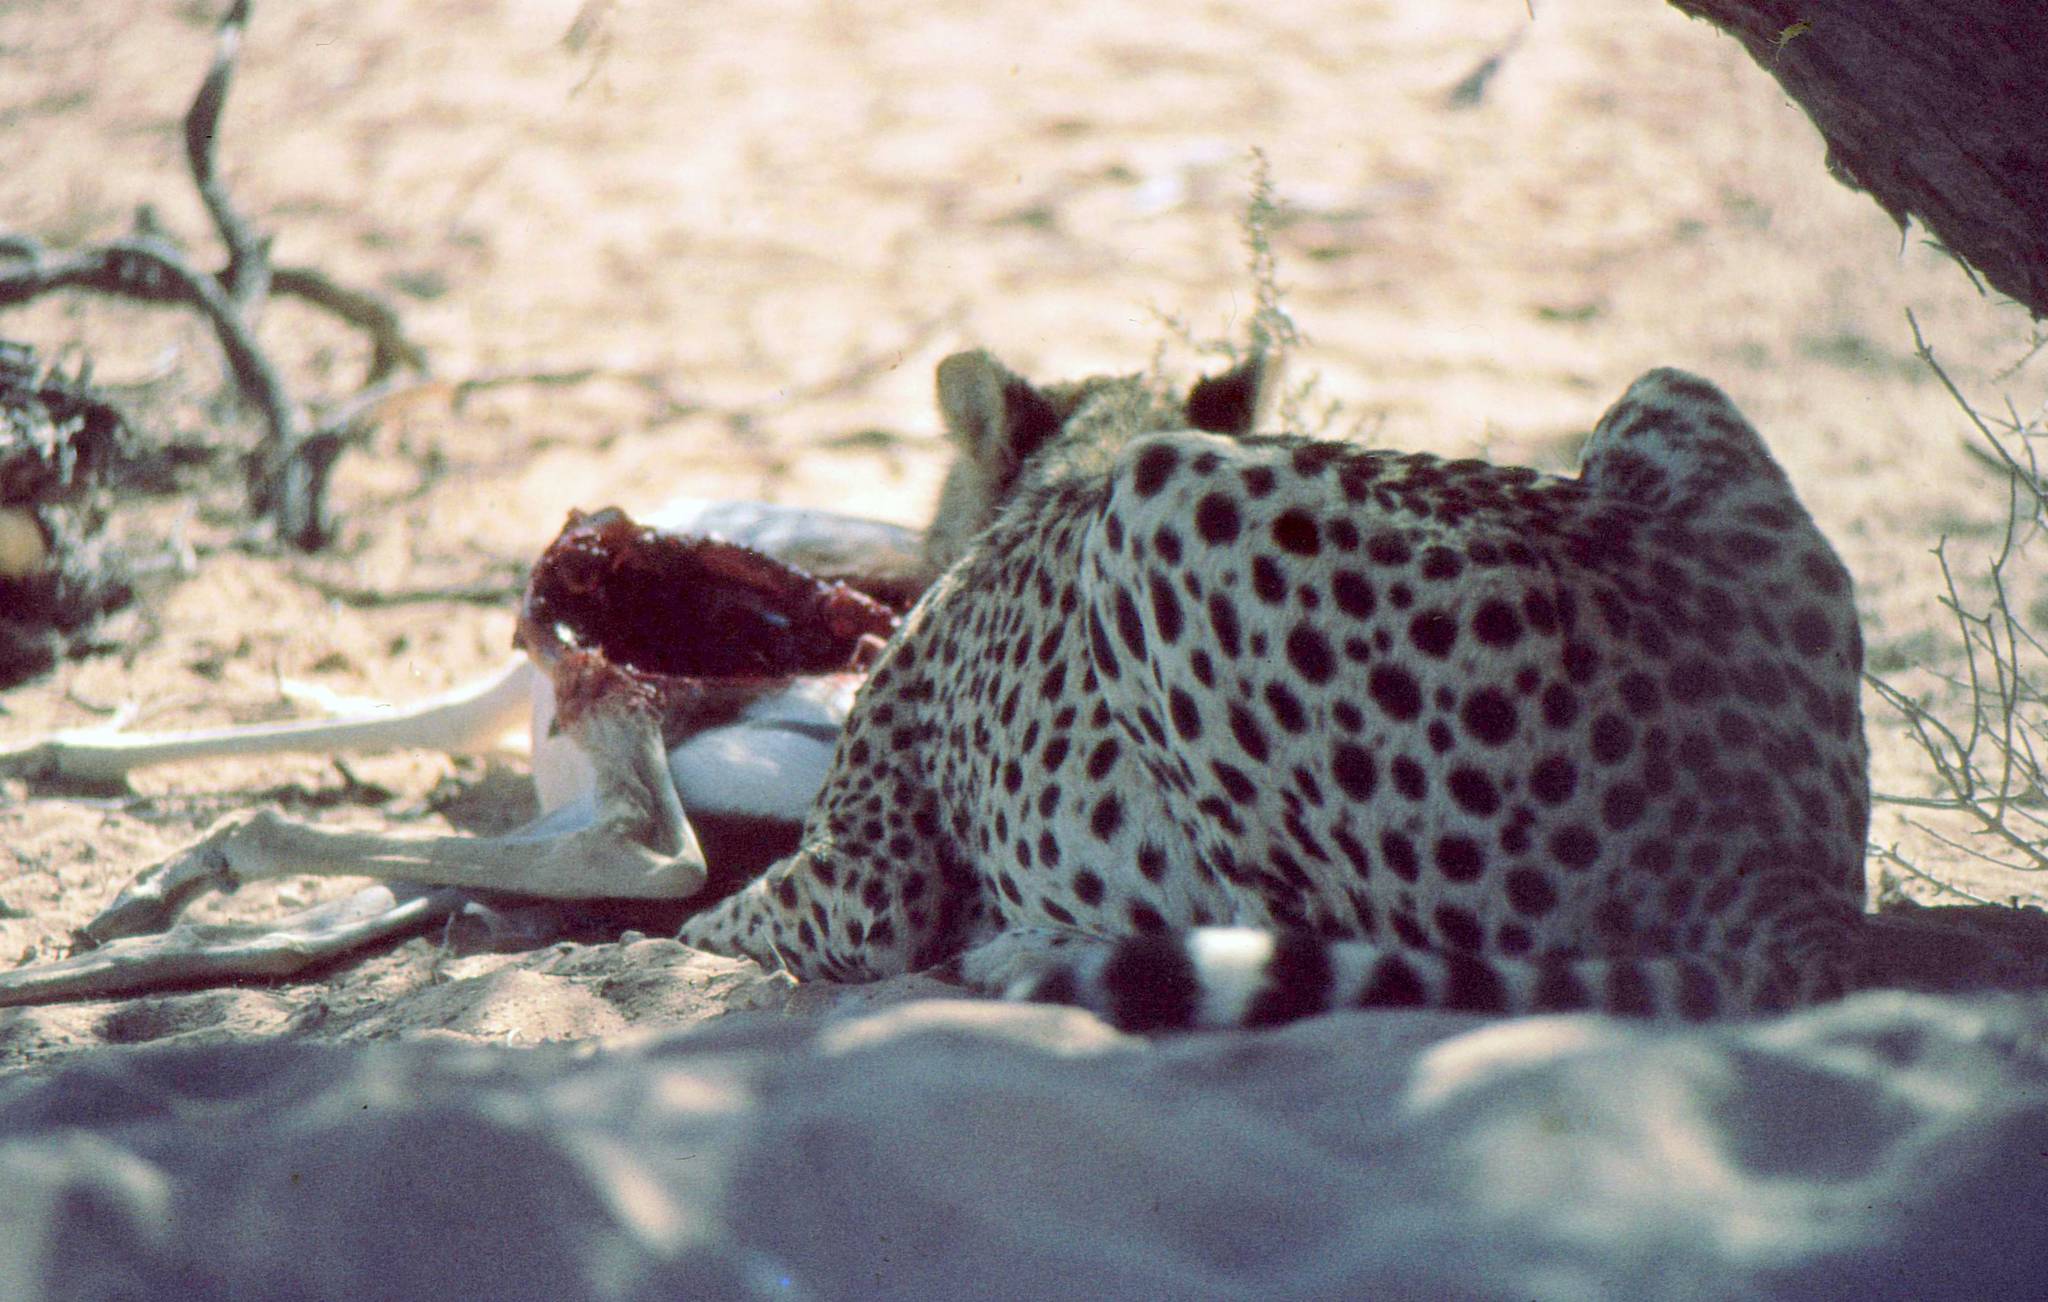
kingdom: Animalia
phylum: Chordata
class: Mammalia
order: Carnivora
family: Felidae
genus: Acinonyx
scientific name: Acinonyx jubatus
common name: Cheetah
